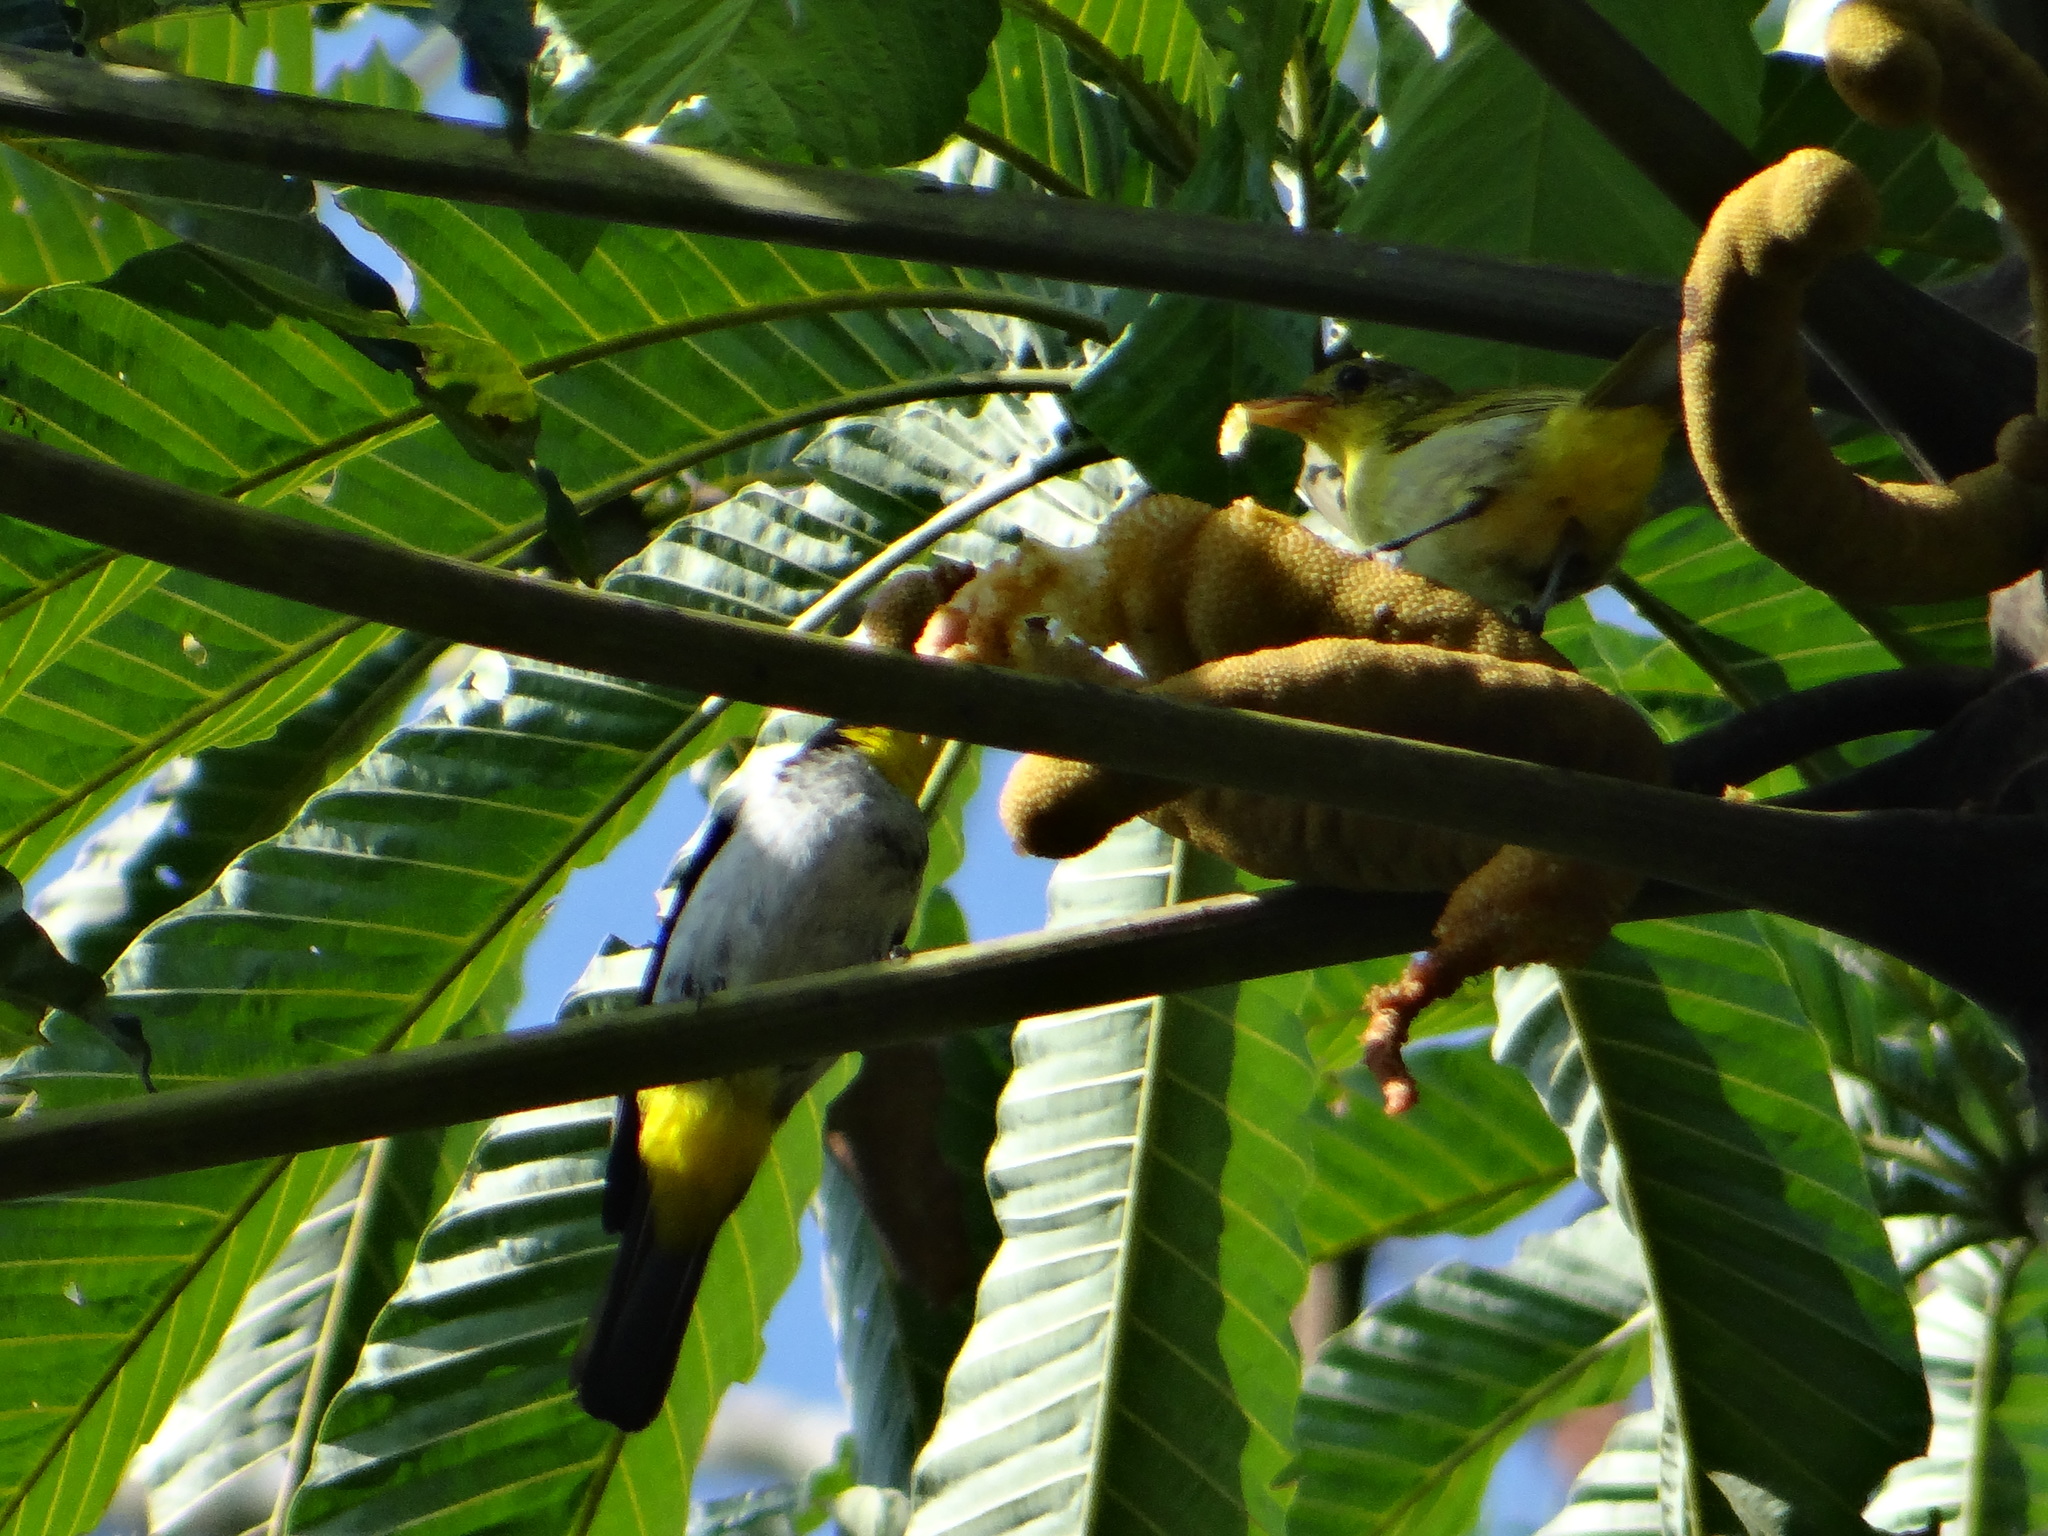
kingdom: Animalia
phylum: Chordata
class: Aves
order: Passeriformes
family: Thraupidae
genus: Hemithraupis
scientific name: Hemithraupis flavicollis
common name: Yellow-backed tanager
